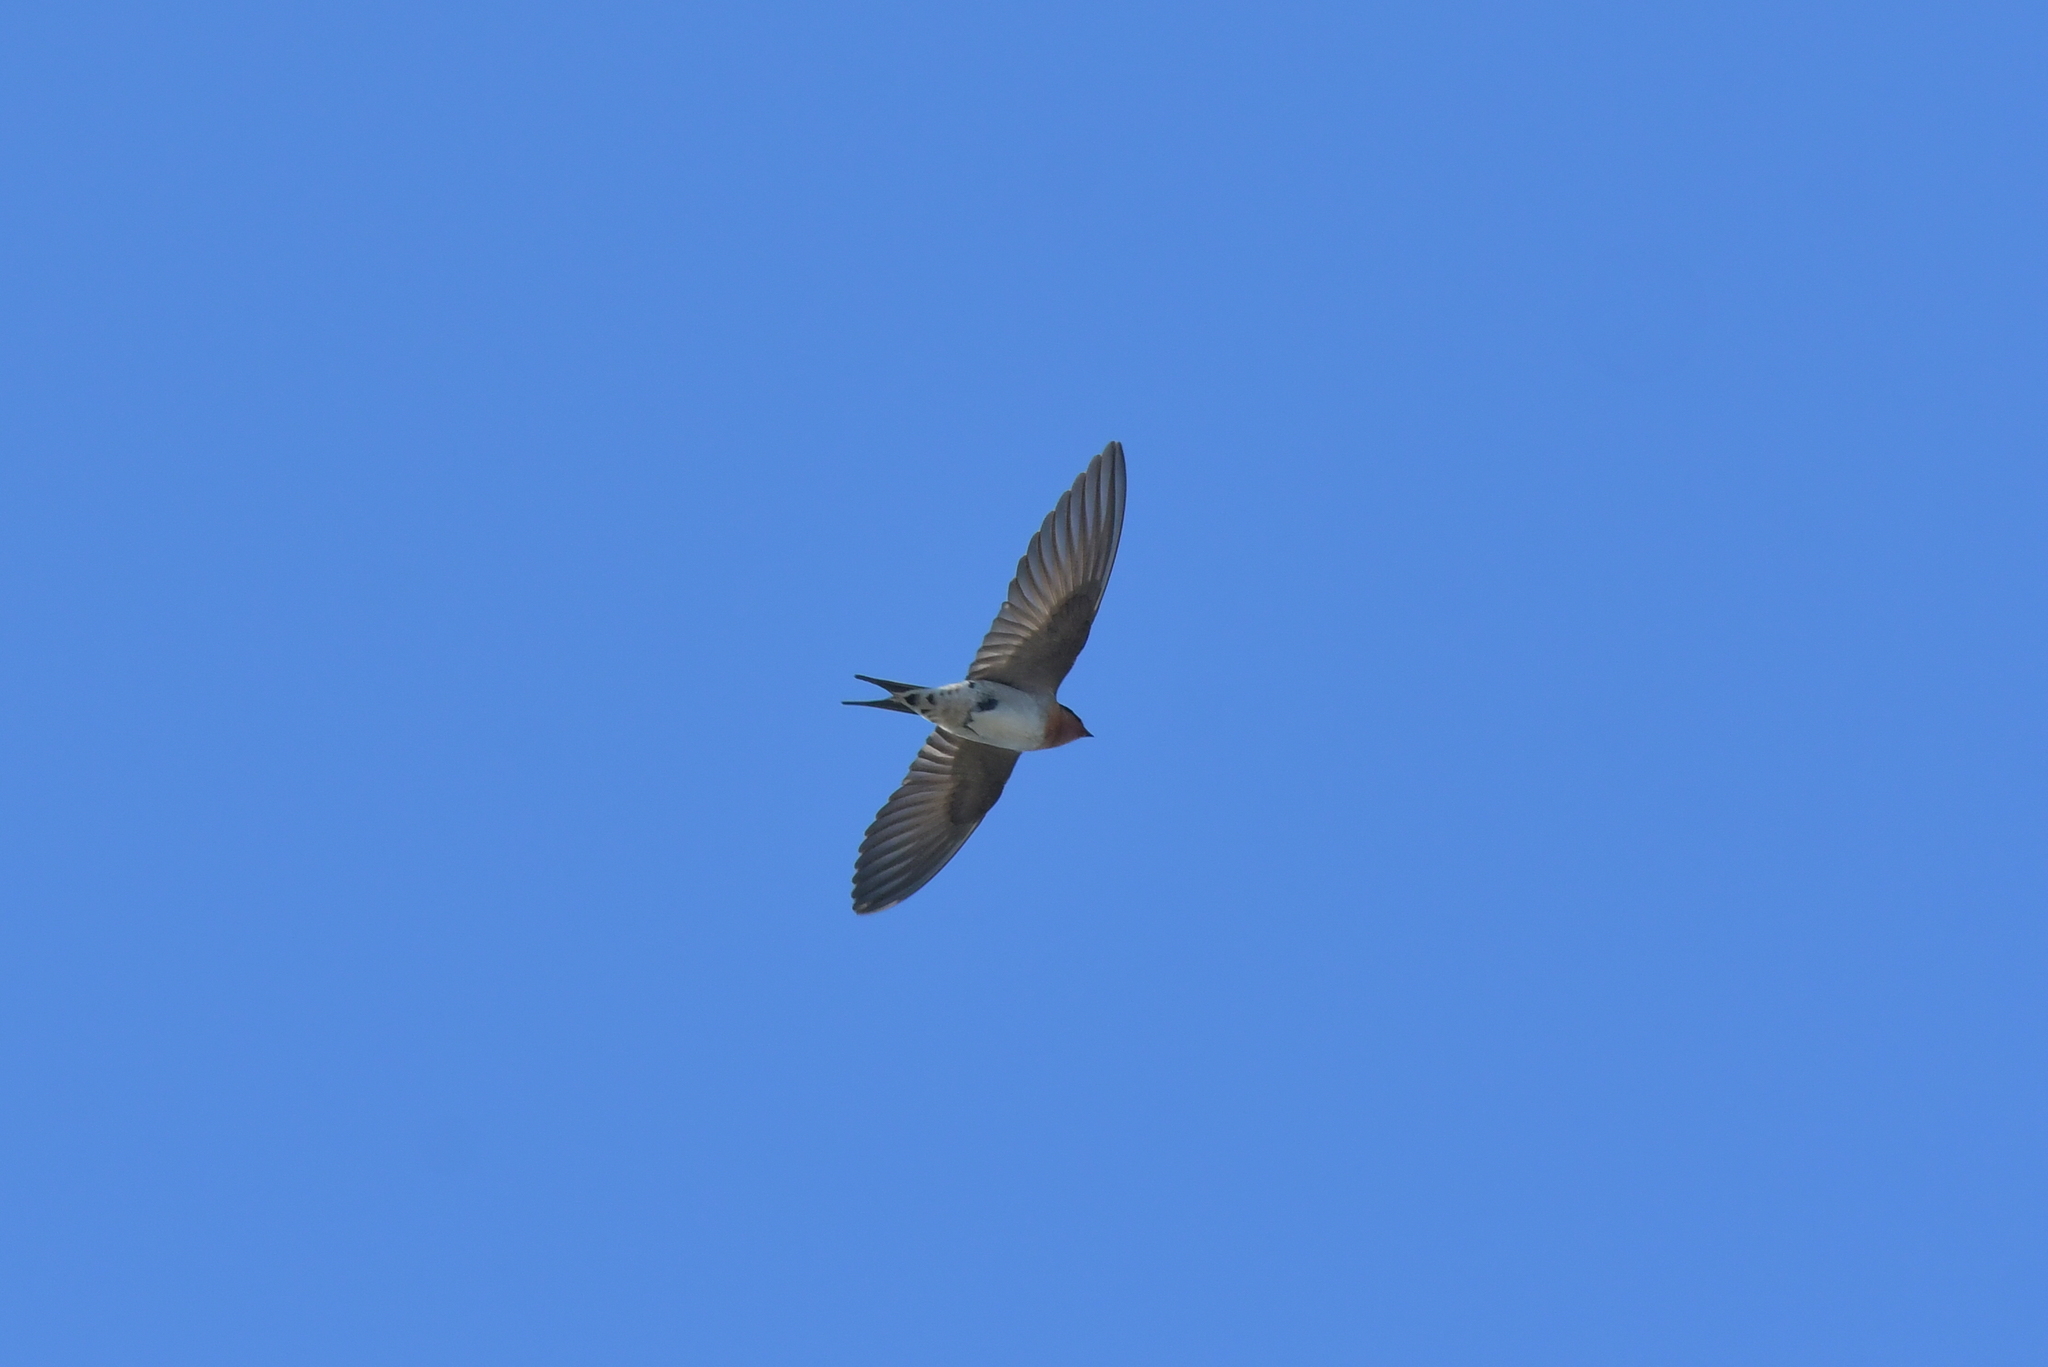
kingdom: Animalia
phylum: Chordata
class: Aves
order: Passeriformes
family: Hirundinidae
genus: Hirundo
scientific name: Hirundo neoxena
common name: Welcome swallow
